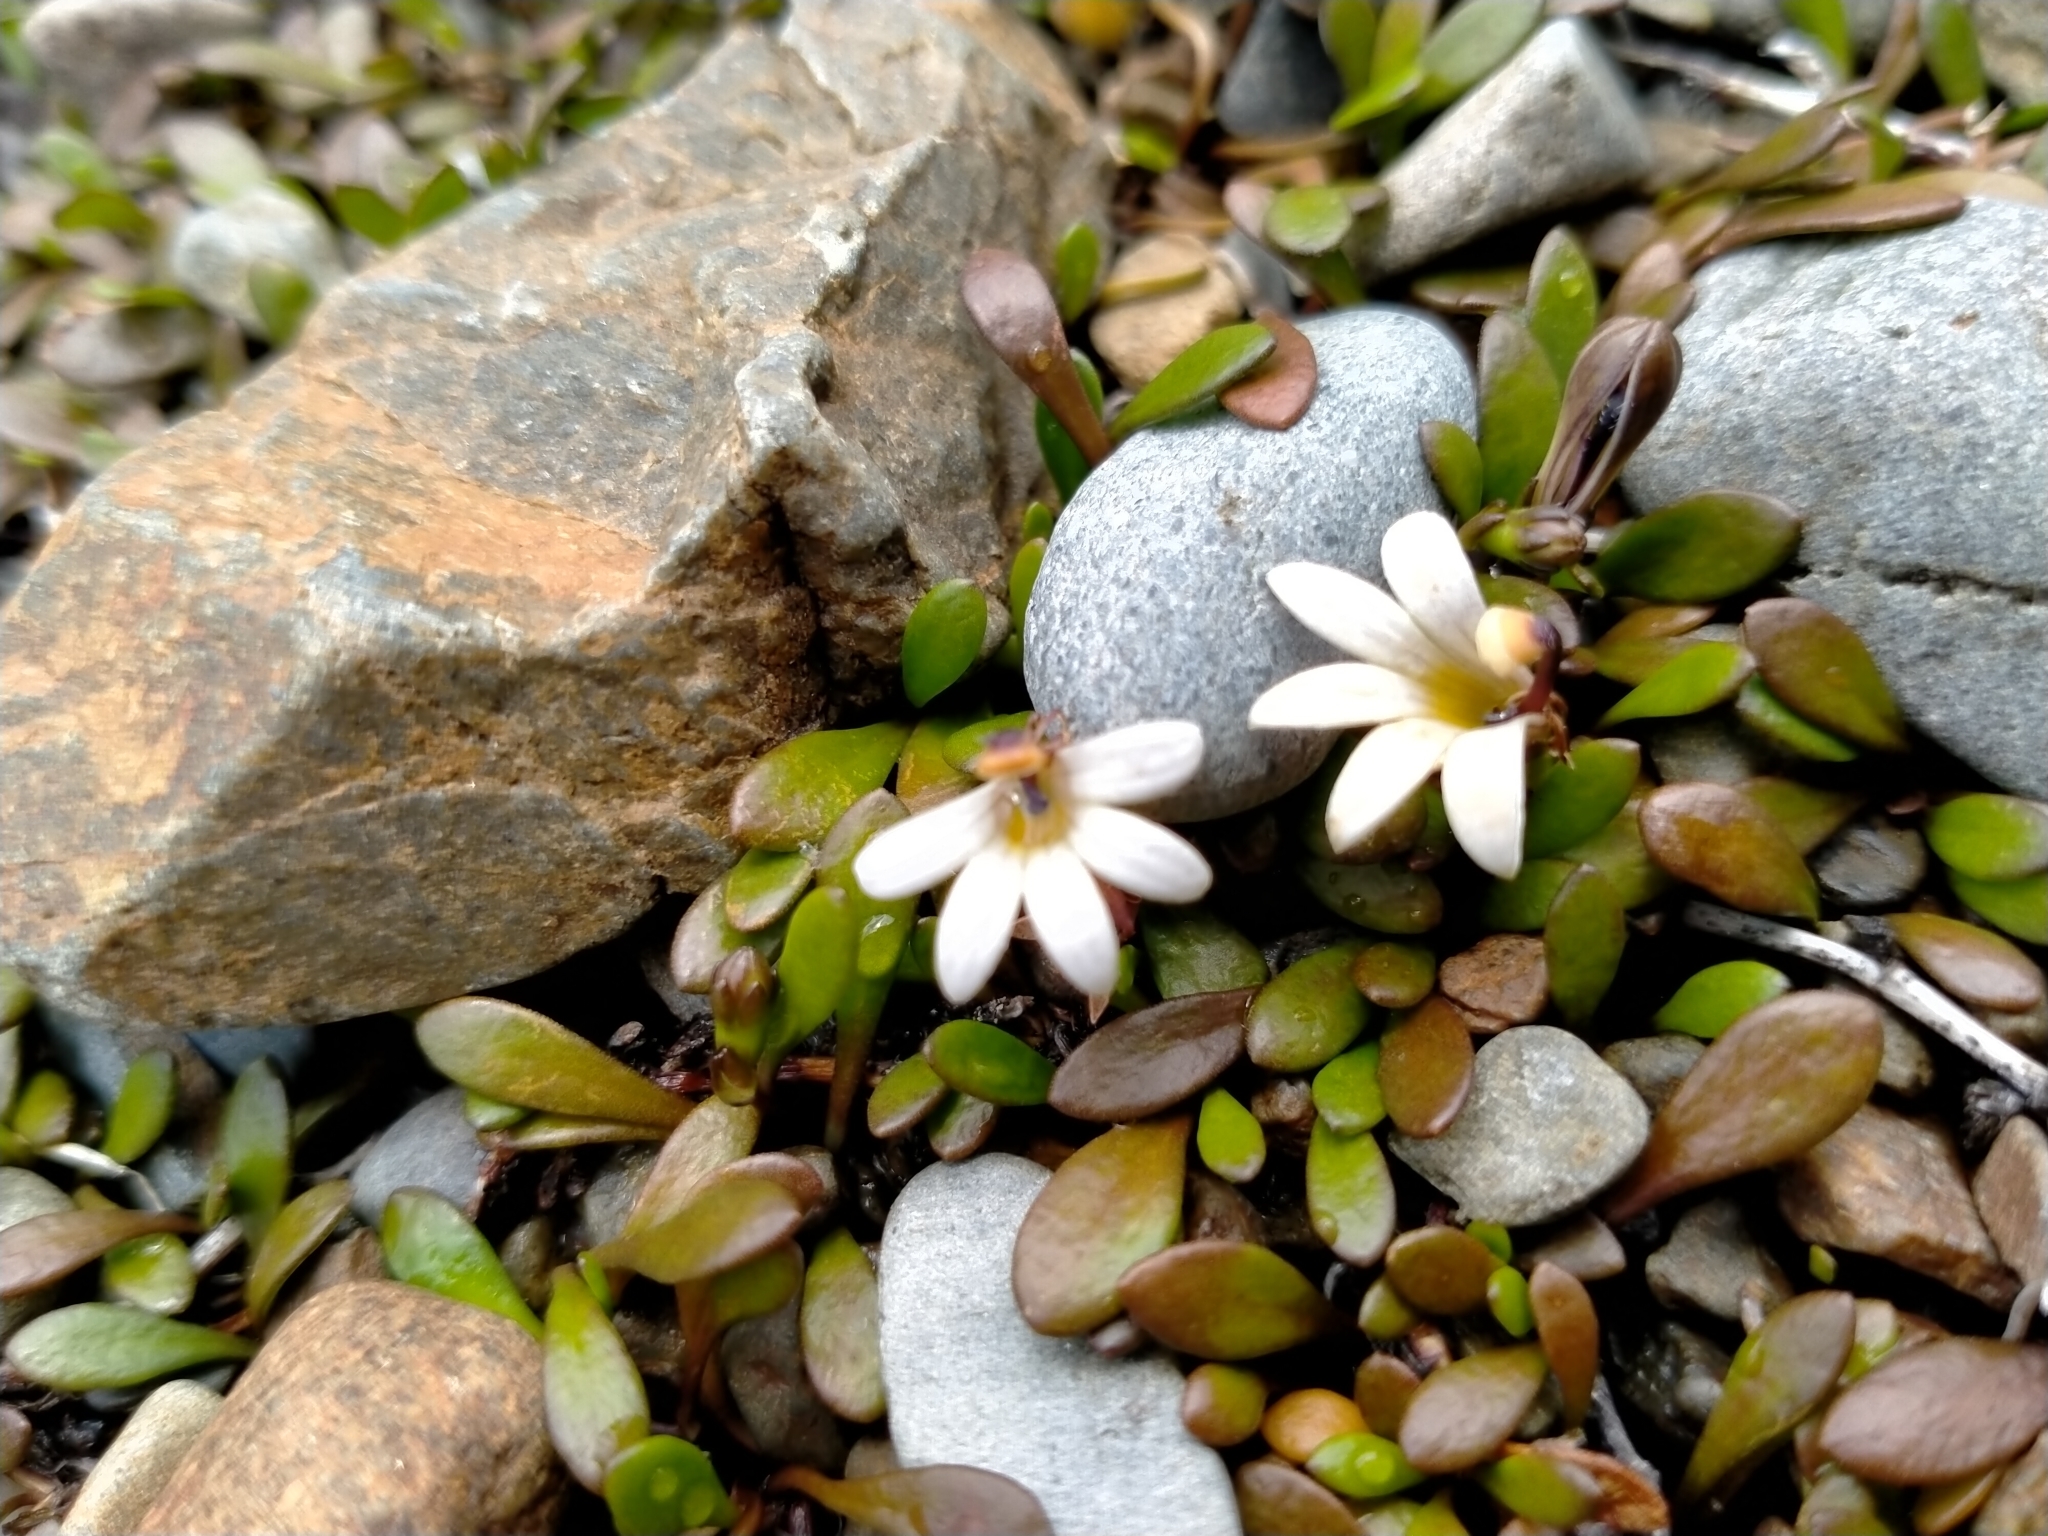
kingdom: Plantae
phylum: Tracheophyta
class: Magnoliopsida
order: Asterales
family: Goodeniaceae
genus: Goodenia
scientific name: Goodenia radicans
